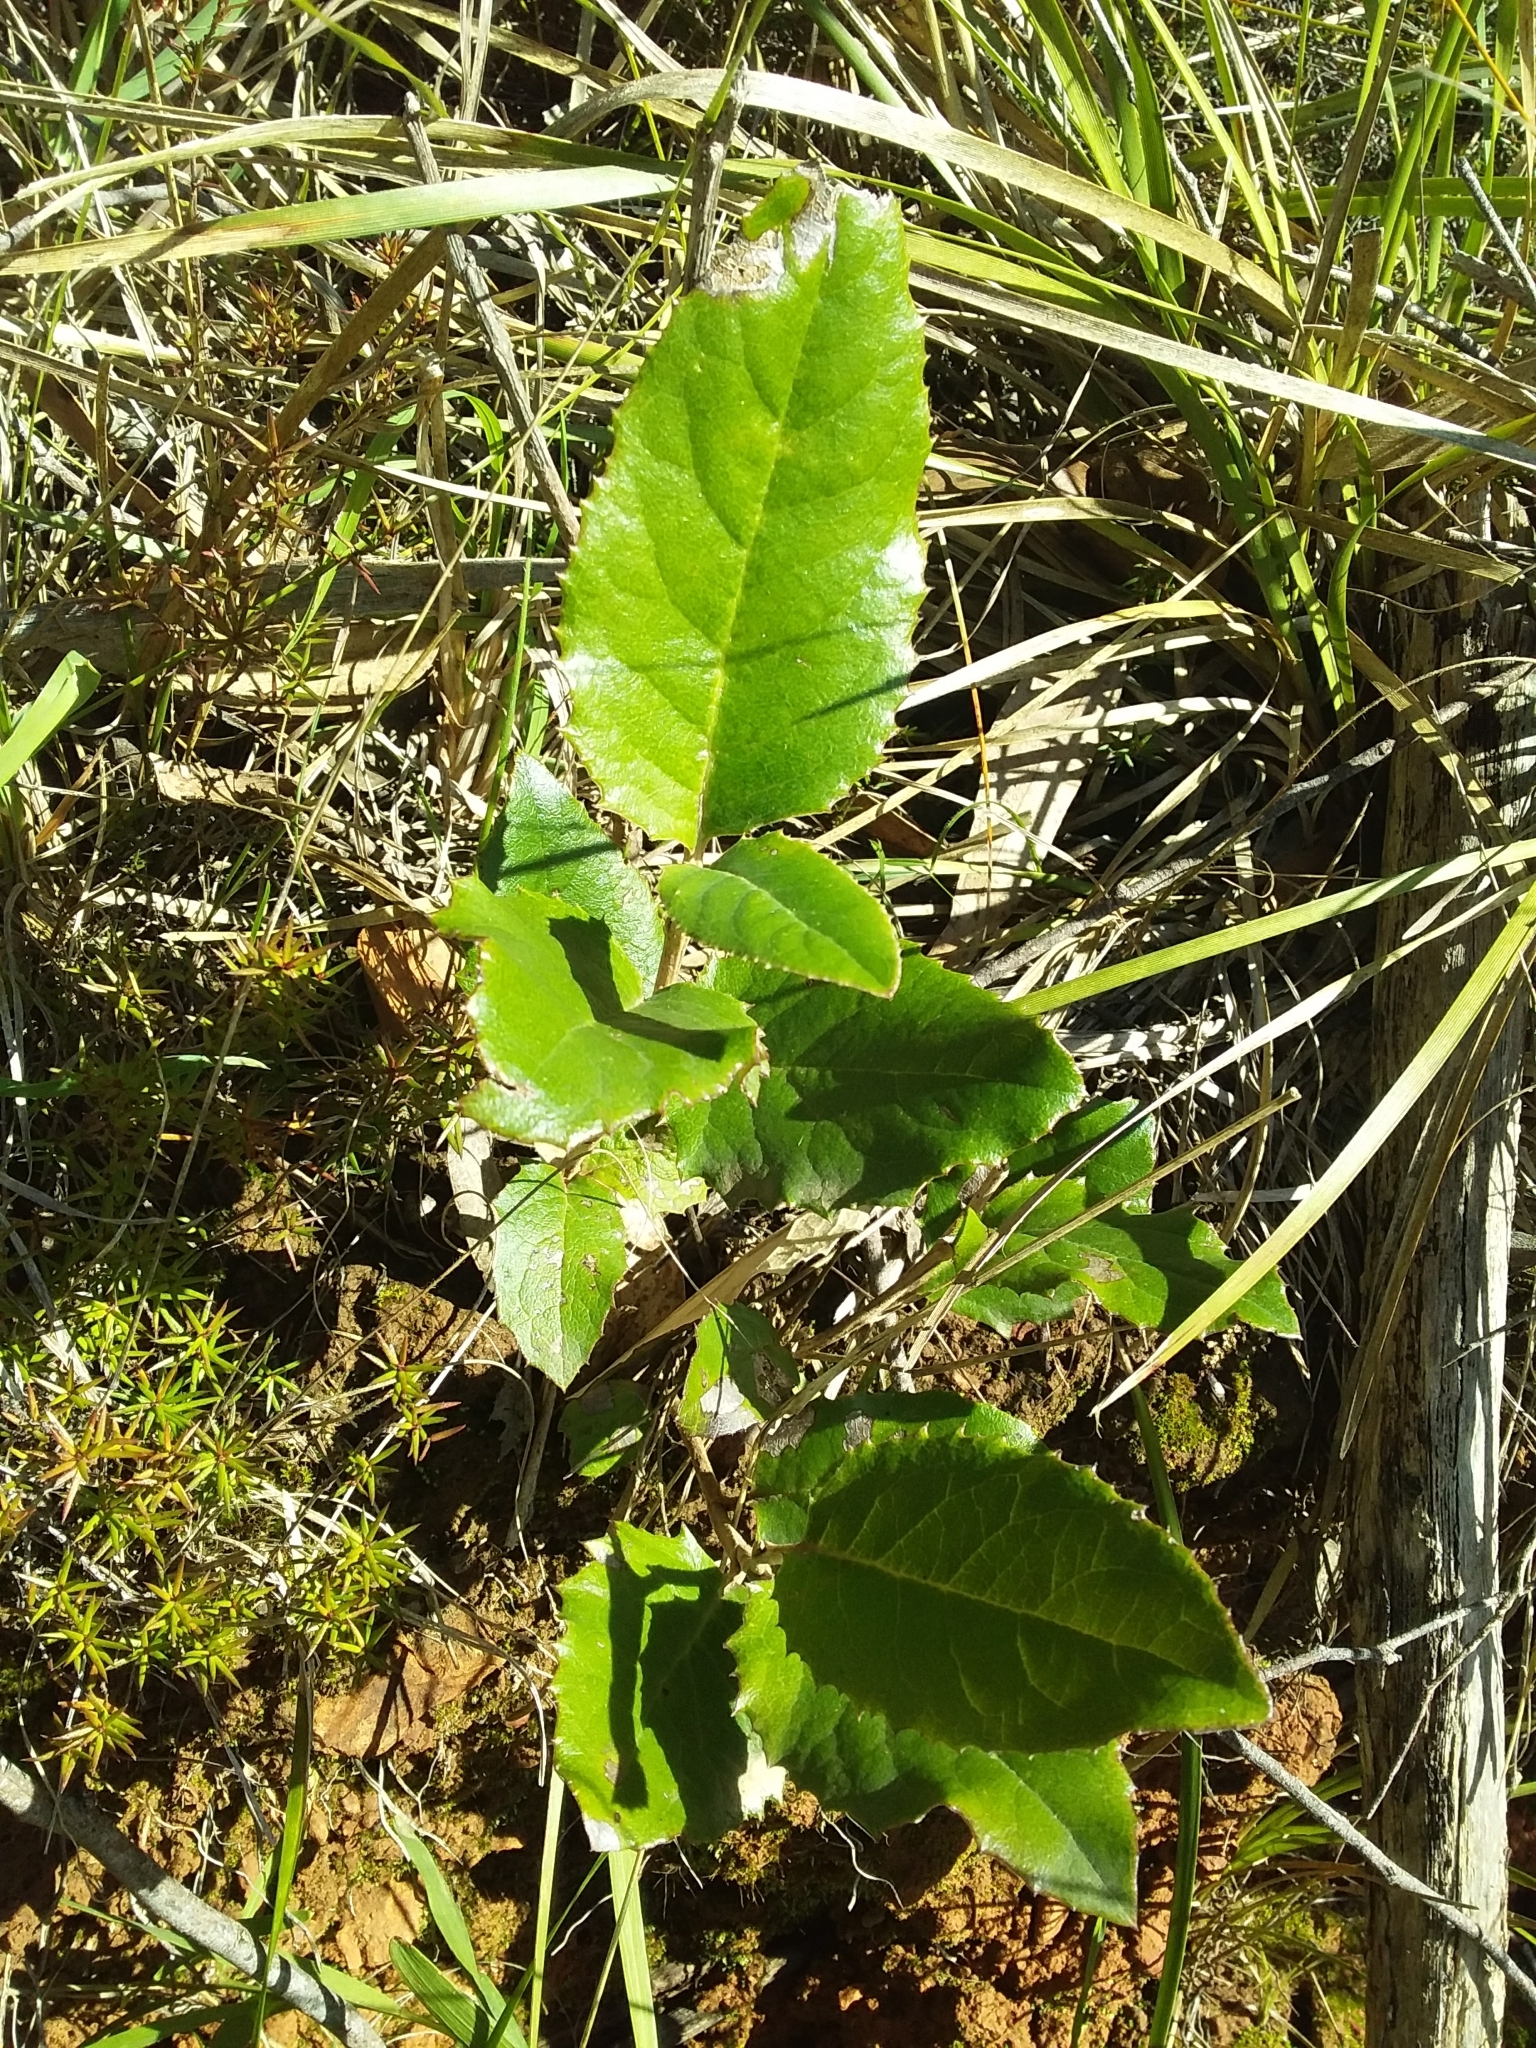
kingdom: Plantae
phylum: Tracheophyta
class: Magnoliopsida
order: Asterales
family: Asteraceae
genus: Olearia
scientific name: Olearia grandiflora
